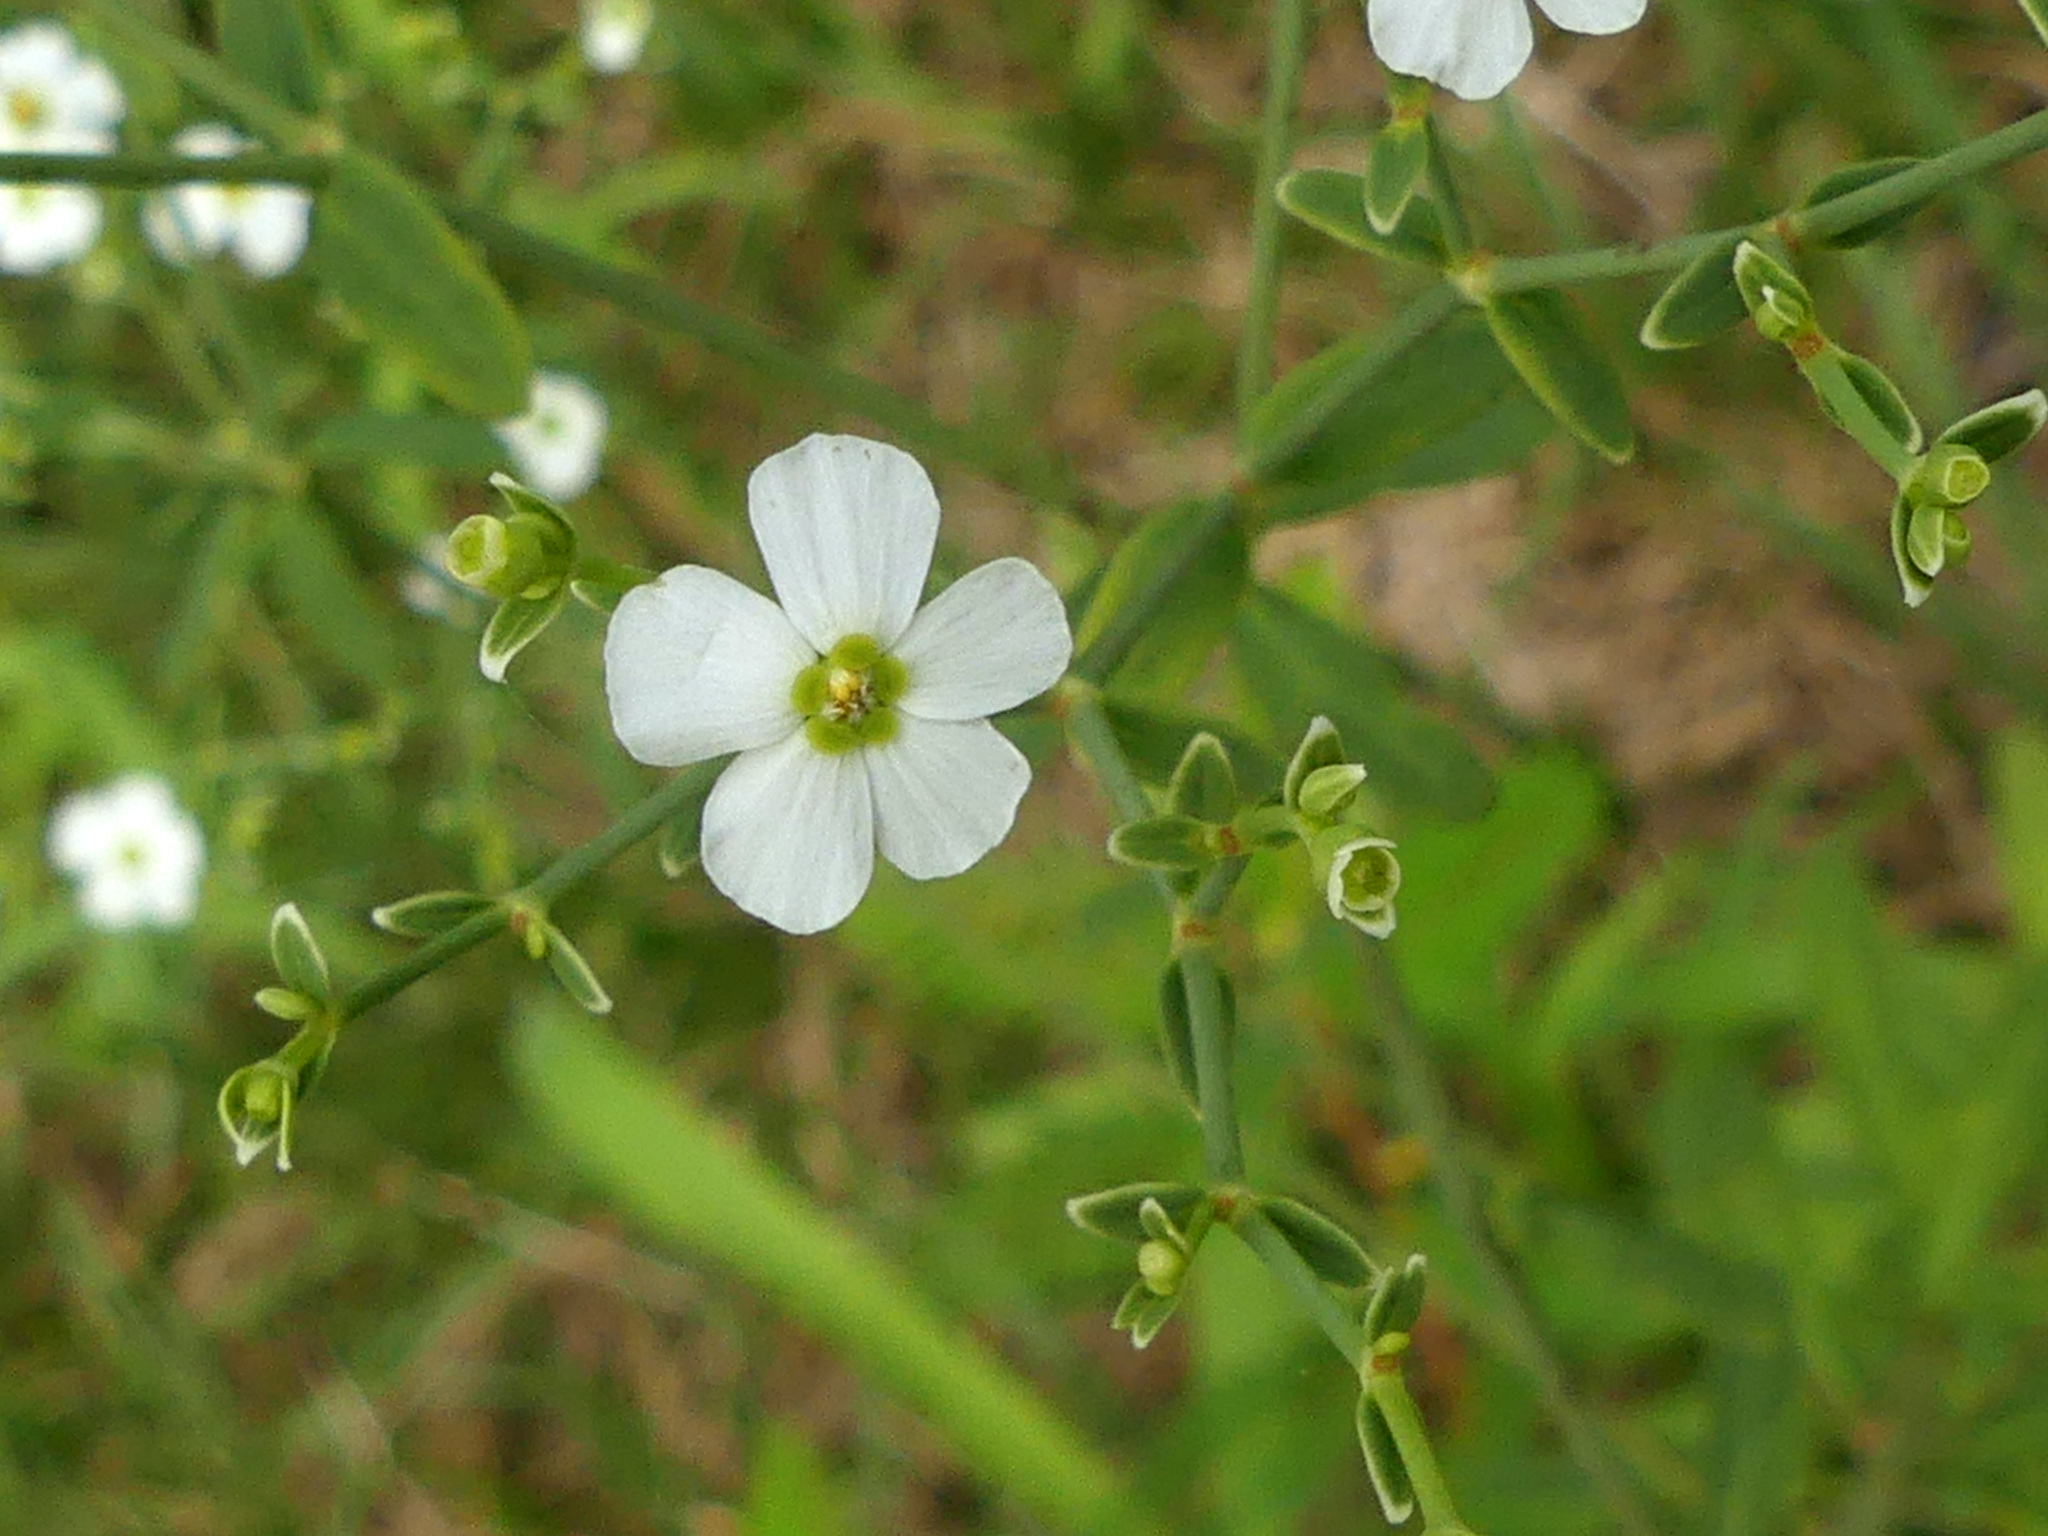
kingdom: Plantae
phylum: Tracheophyta
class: Magnoliopsida
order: Malpighiales
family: Euphorbiaceae
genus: Euphorbia
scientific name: Euphorbia corollata
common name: Flowering spurge
